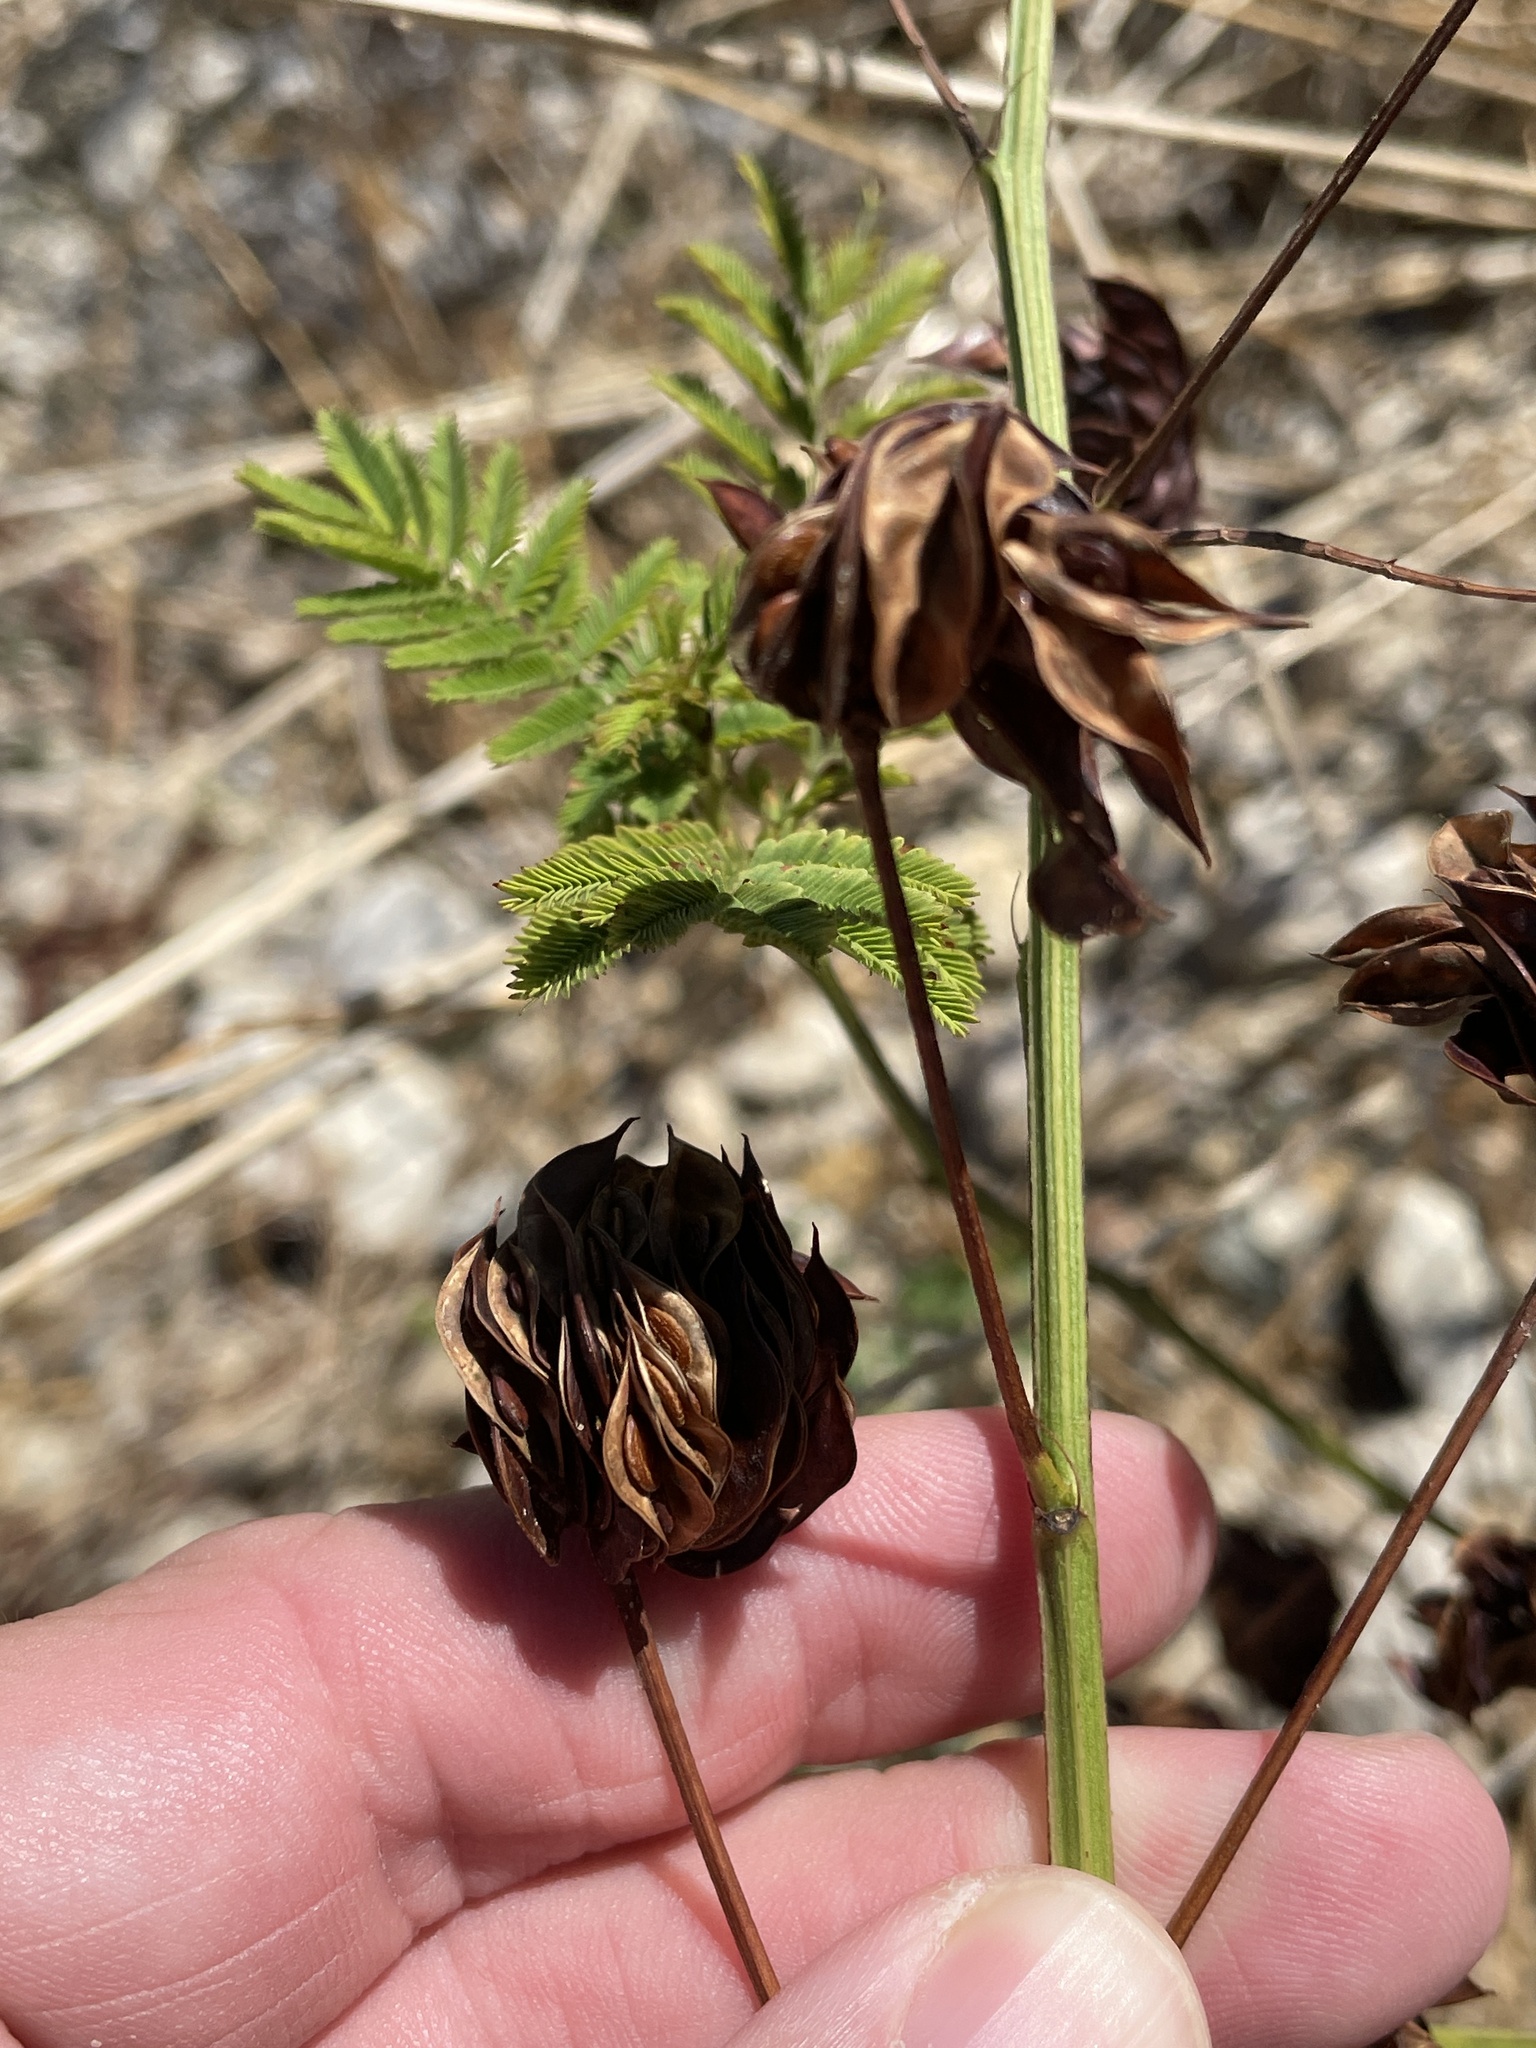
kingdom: Plantae
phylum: Tracheophyta
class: Magnoliopsida
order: Fabales
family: Fabaceae
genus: Desmanthus
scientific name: Desmanthus illinoensis
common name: Illinois bundle-flower
